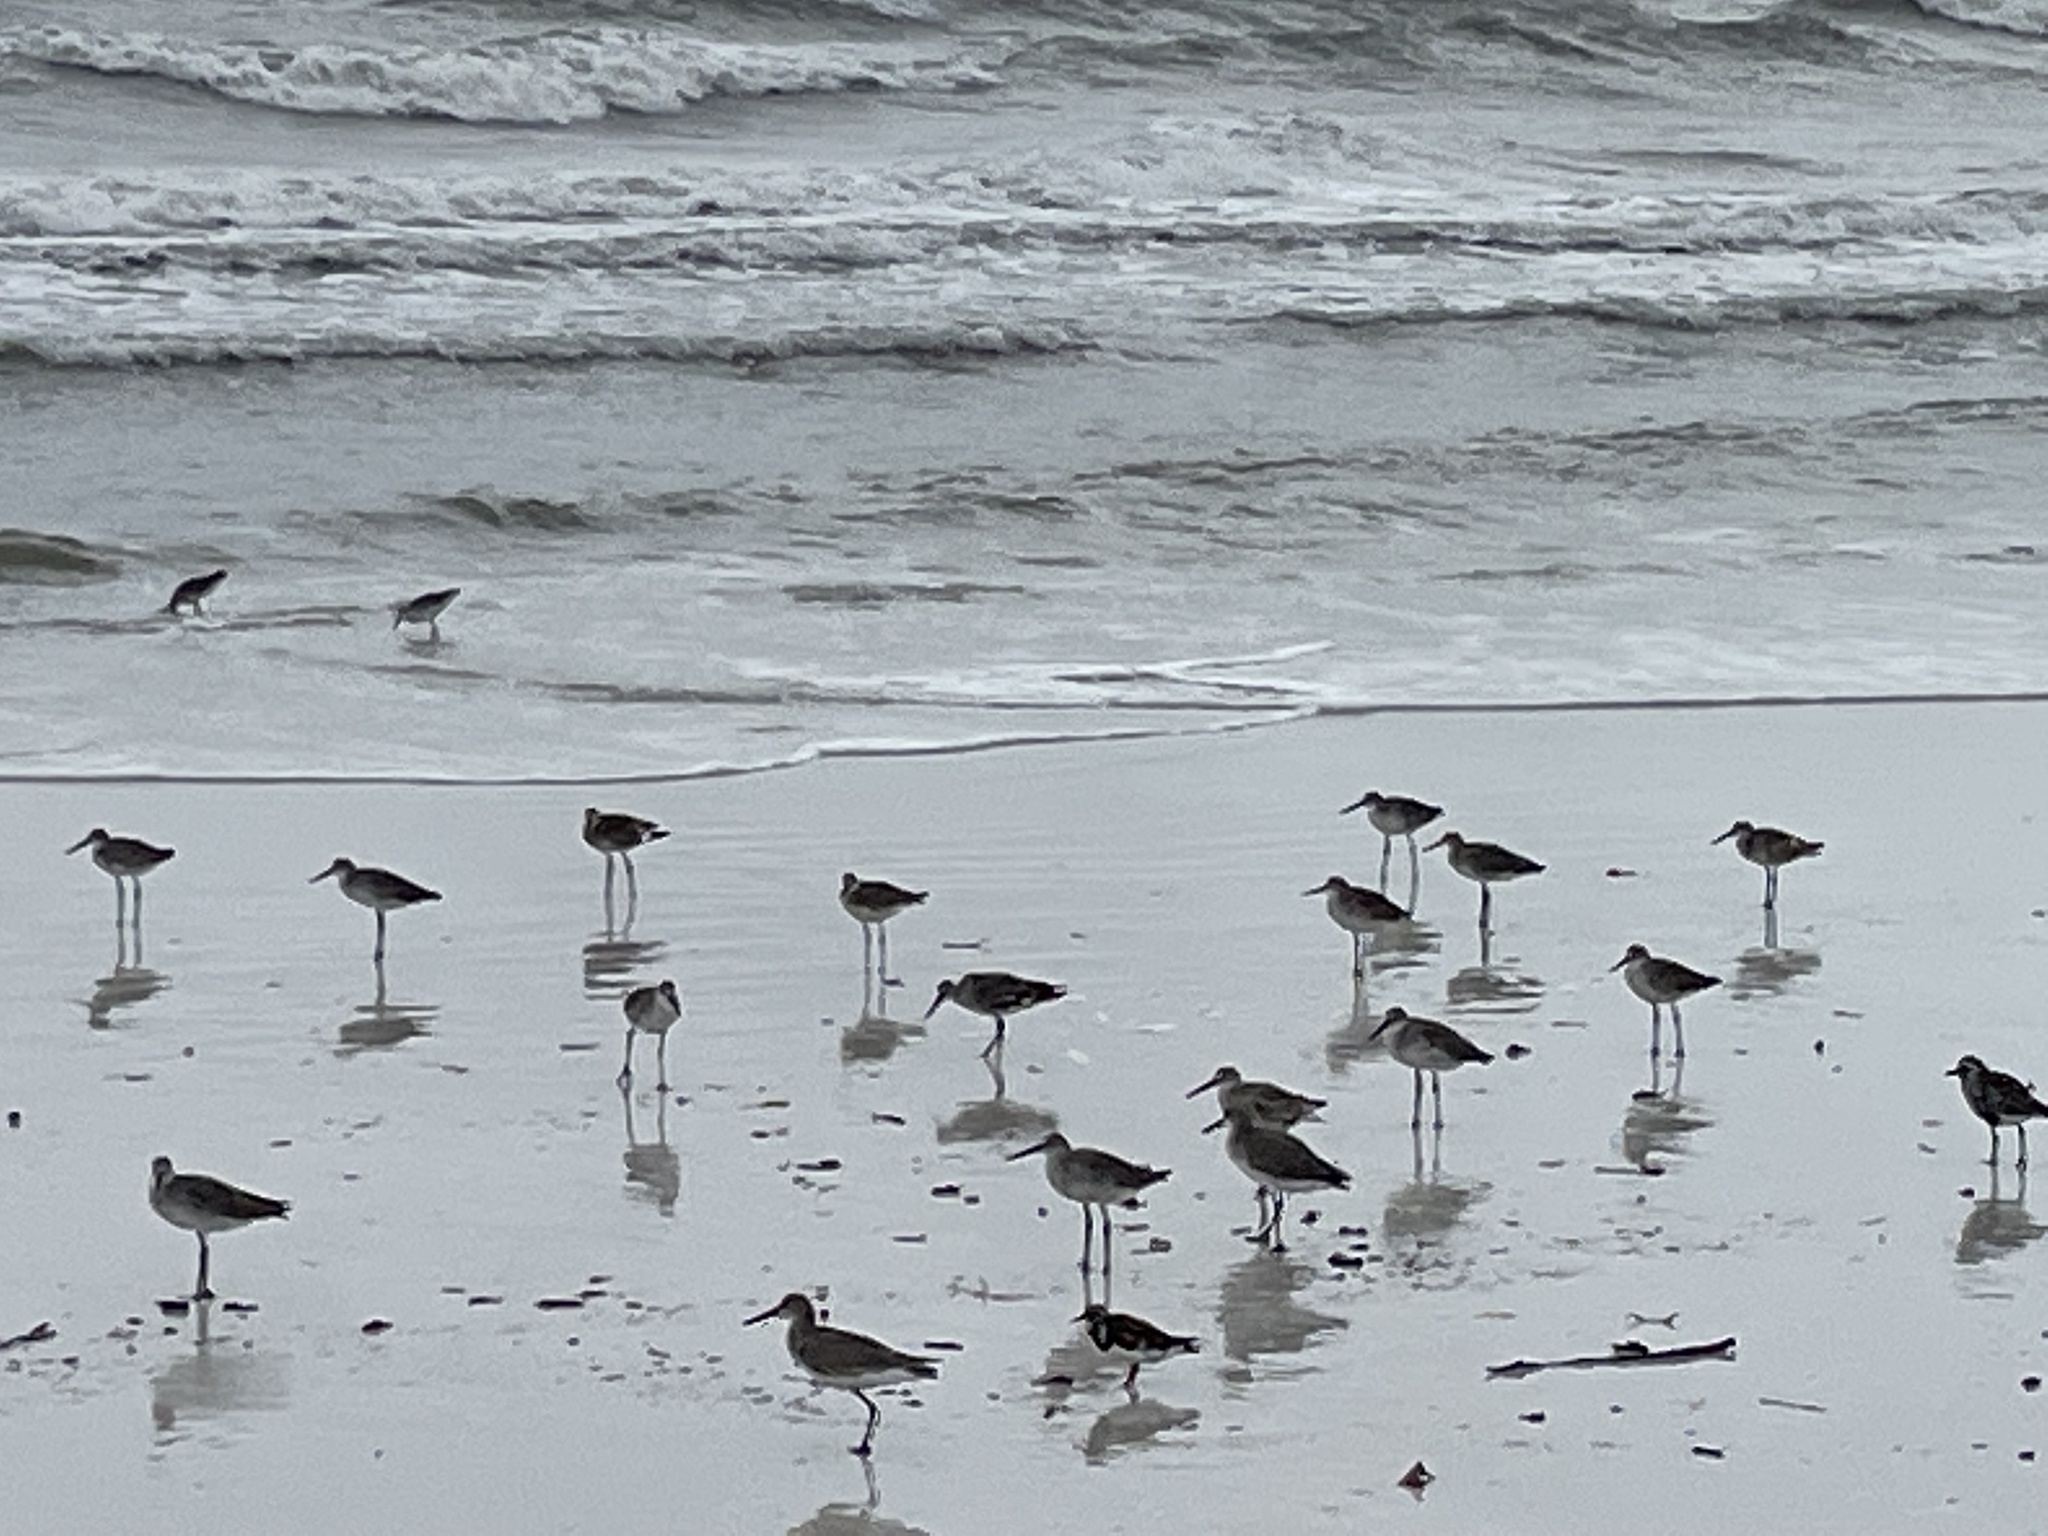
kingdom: Animalia
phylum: Chordata
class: Aves
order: Charadriiformes
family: Scolopacidae
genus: Tringa
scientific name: Tringa semipalmata
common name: Willet
